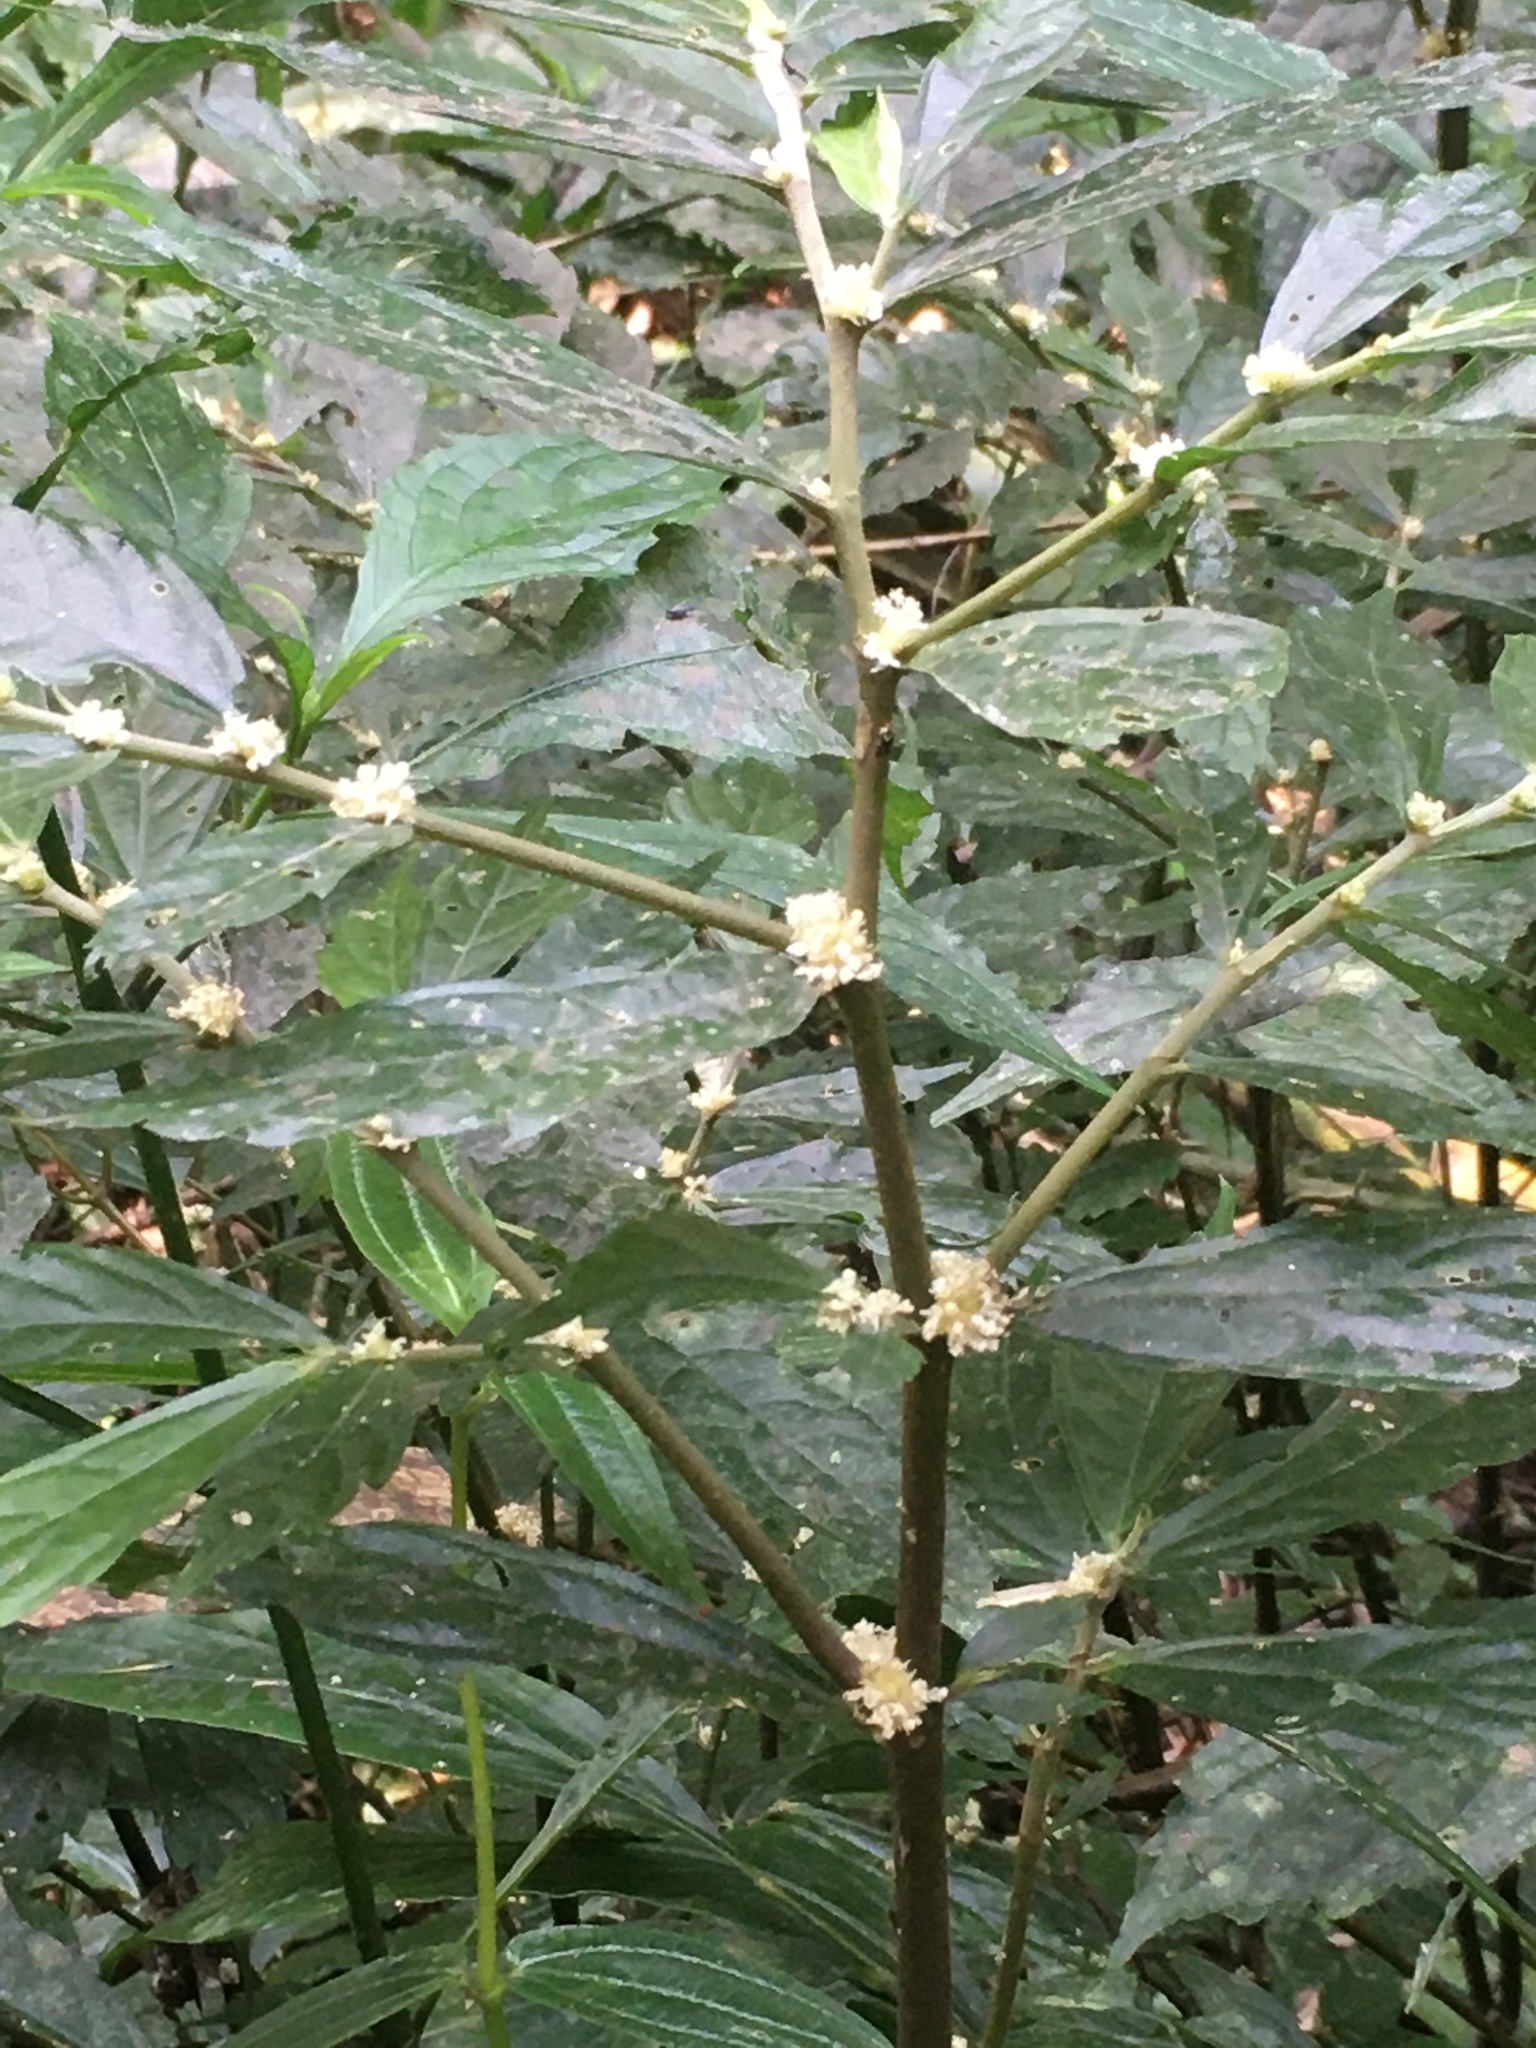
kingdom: Plantae
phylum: Tracheophyta
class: Magnoliopsida
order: Rosales
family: Urticaceae
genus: Elatostema
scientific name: Elatostema lineolatum
